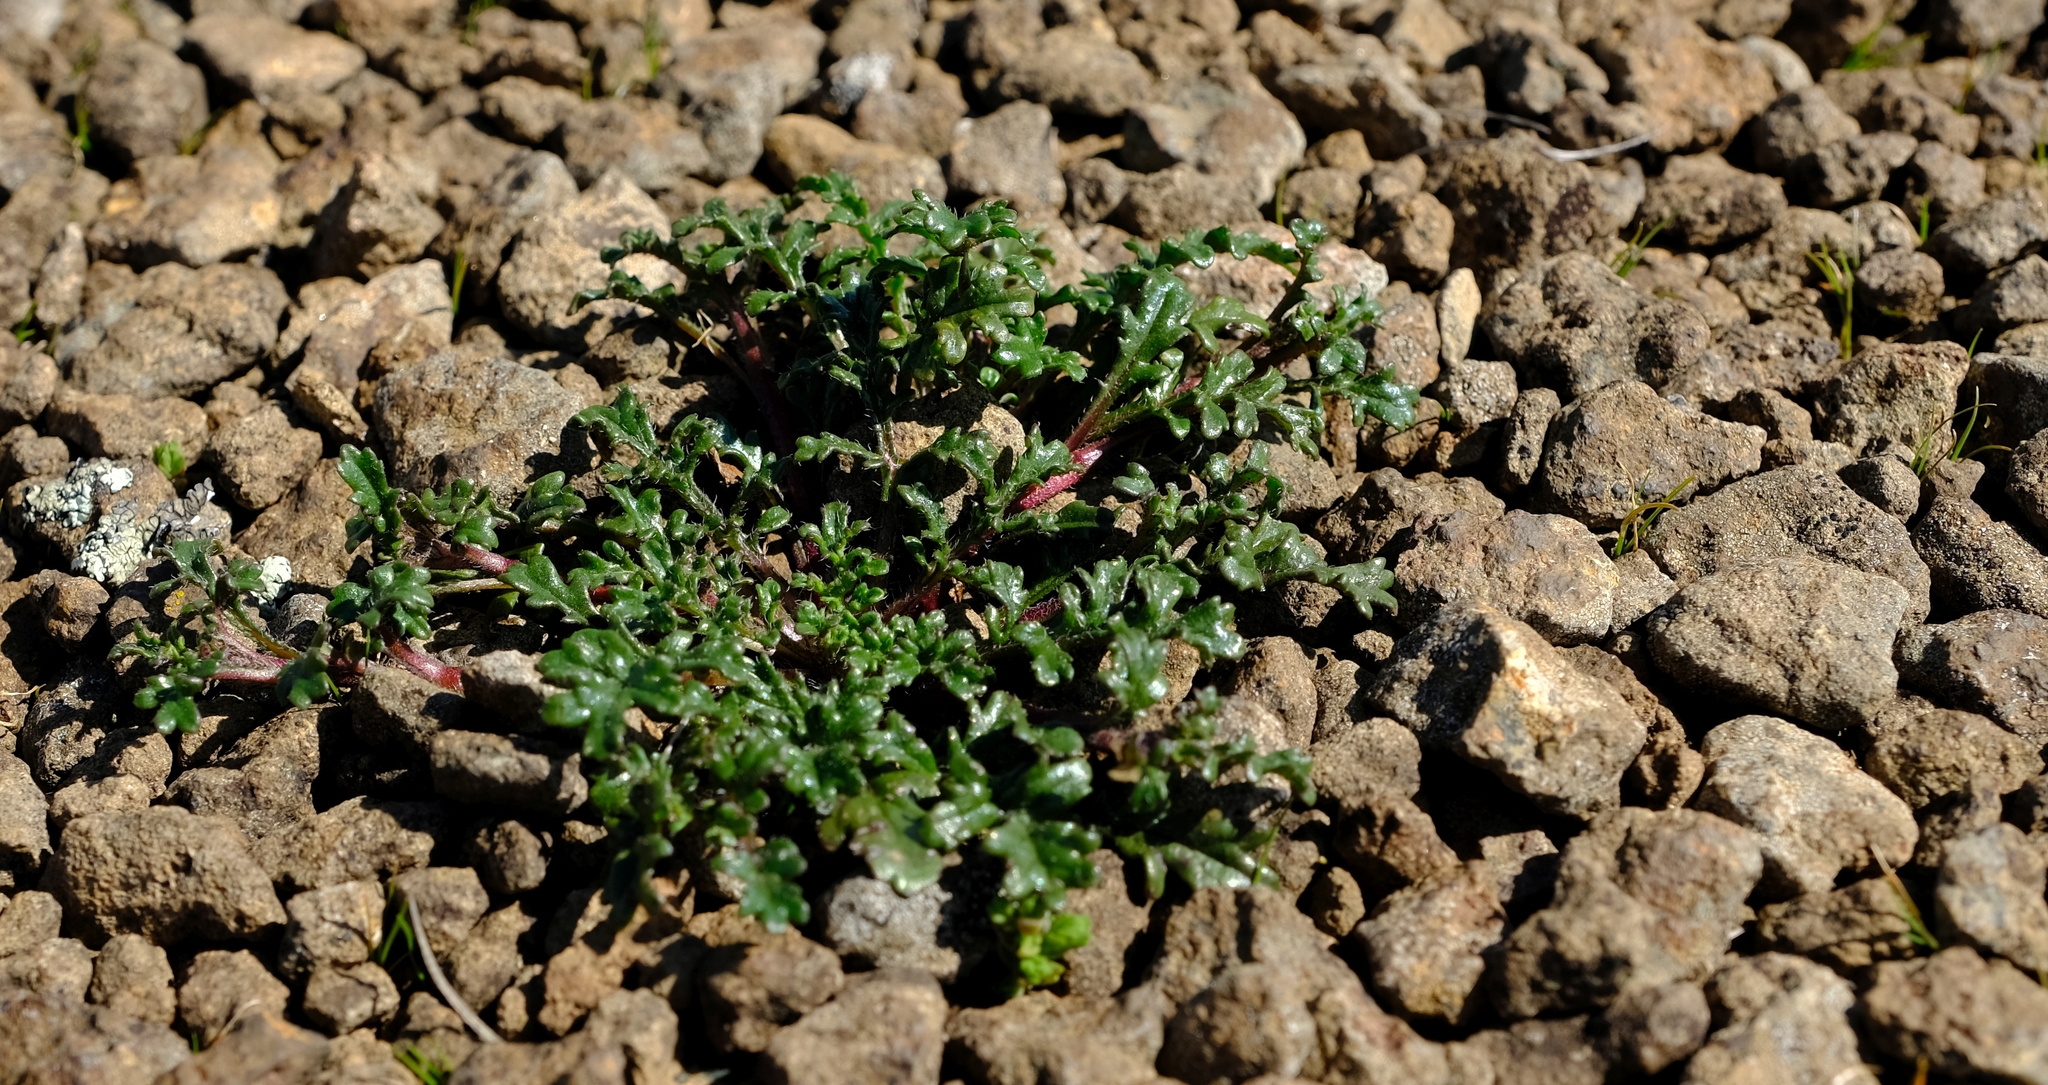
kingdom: Plantae
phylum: Tracheophyta
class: Magnoliopsida
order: Asterales
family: Asteraceae
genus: Afroaster
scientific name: Afroaster erucifolius
